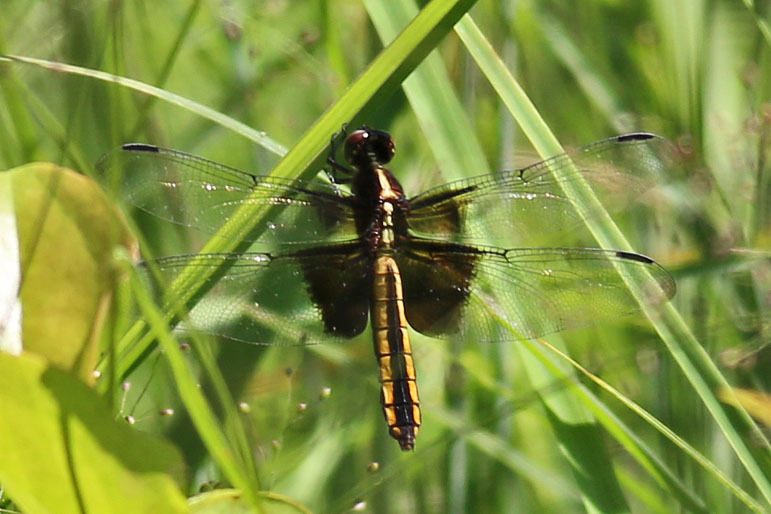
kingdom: Animalia
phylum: Arthropoda
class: Insecta
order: Odonata
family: Libellulidae
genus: Libellula
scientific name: Libellula luctuosa
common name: Widow skimmer
